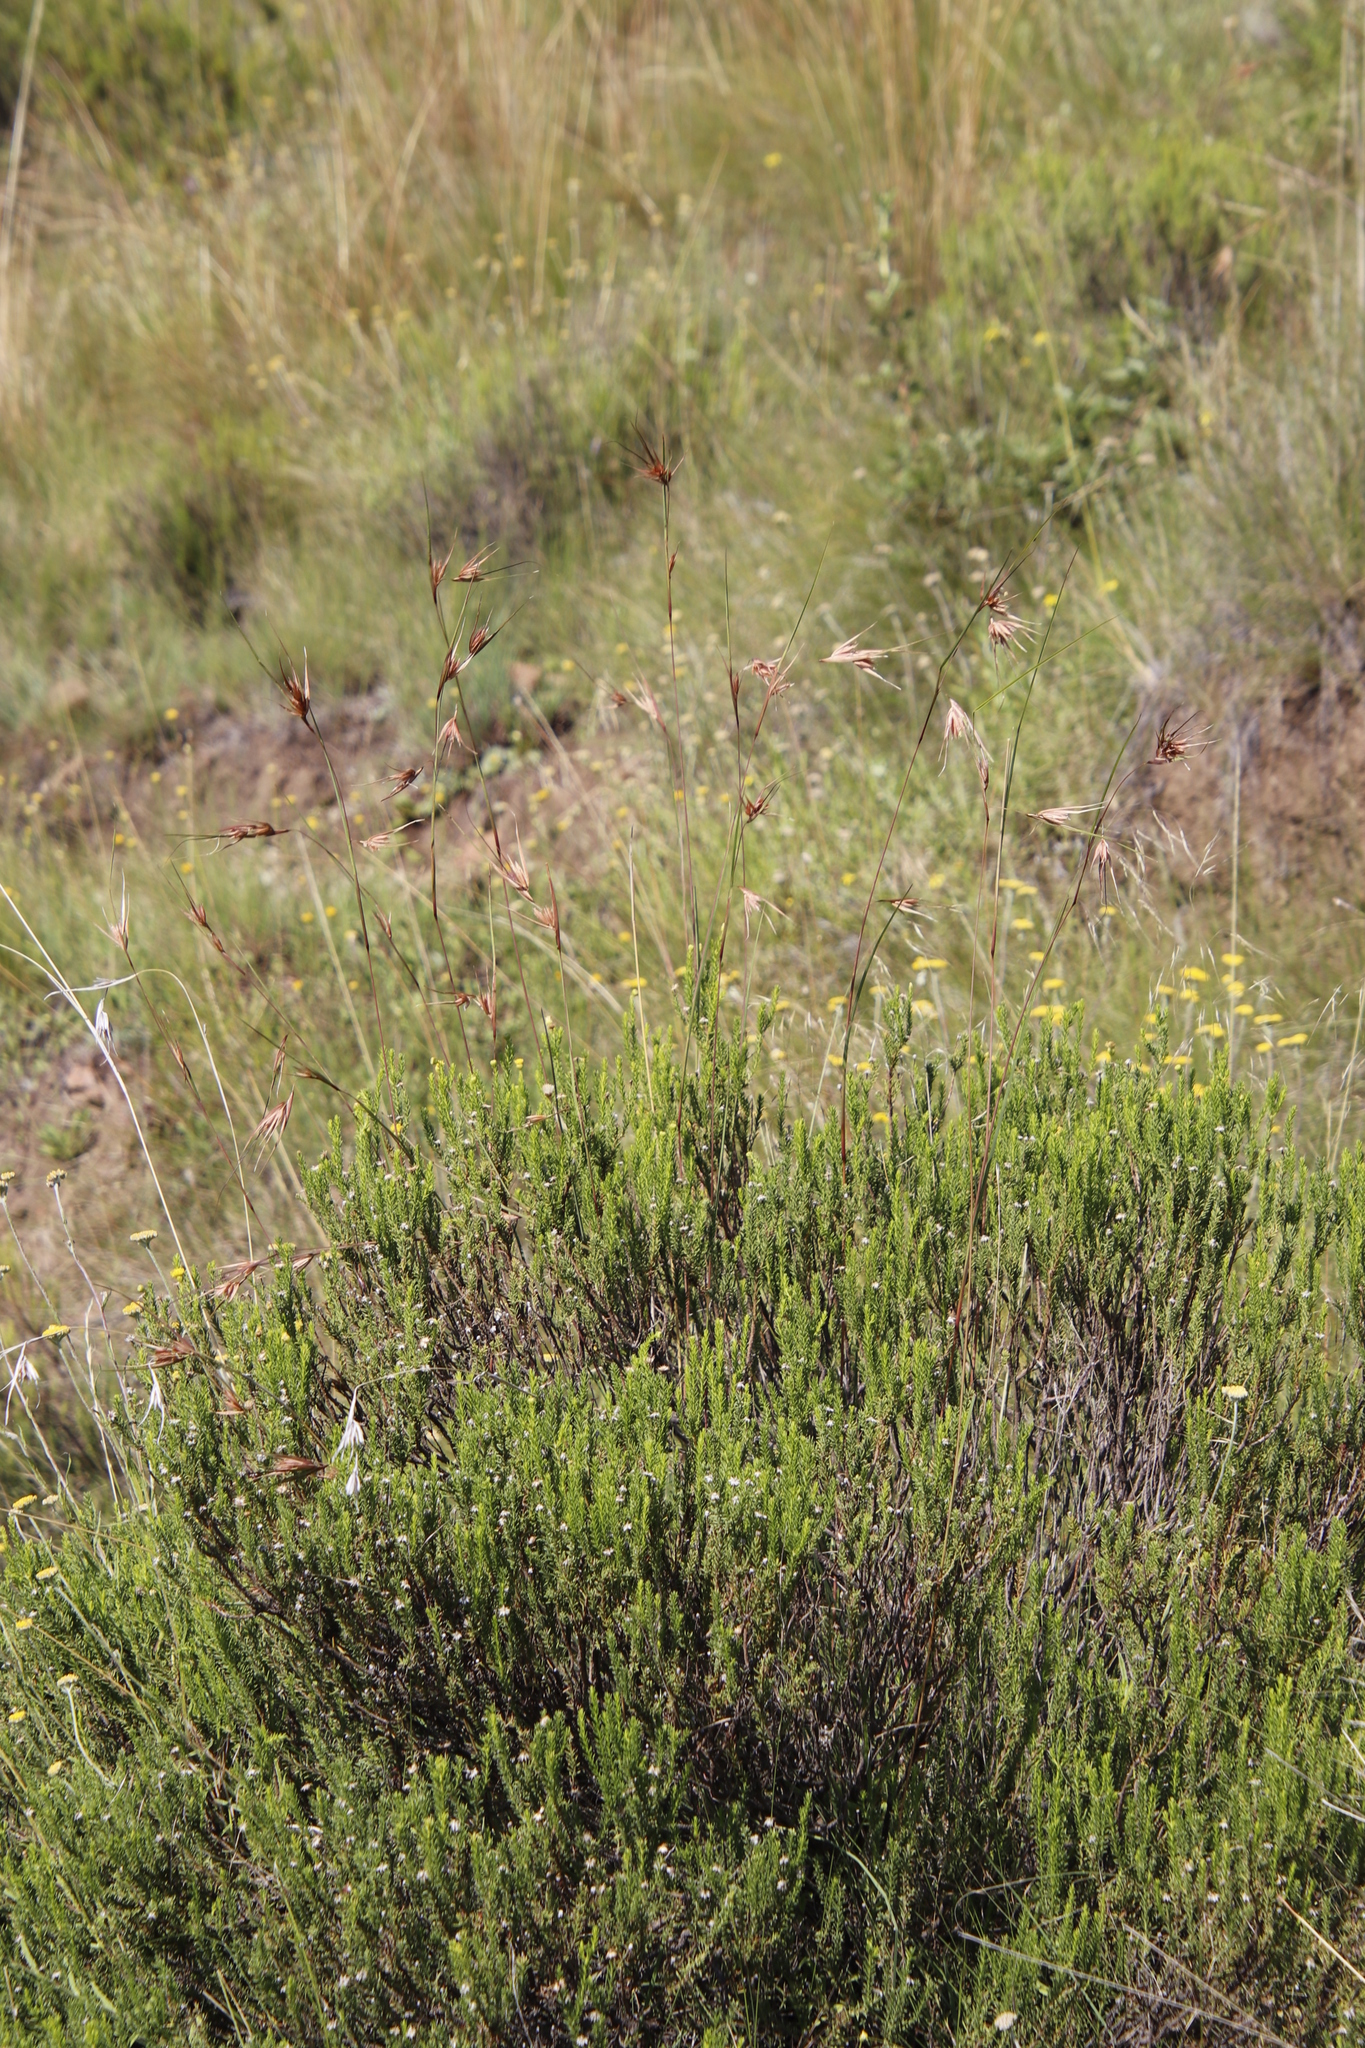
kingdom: Plantae
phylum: Tracheophyta
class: Magnoliopsida
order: Asterales
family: Asteraceae
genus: Chrysocoma
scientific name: Chrysocoma ciliata
